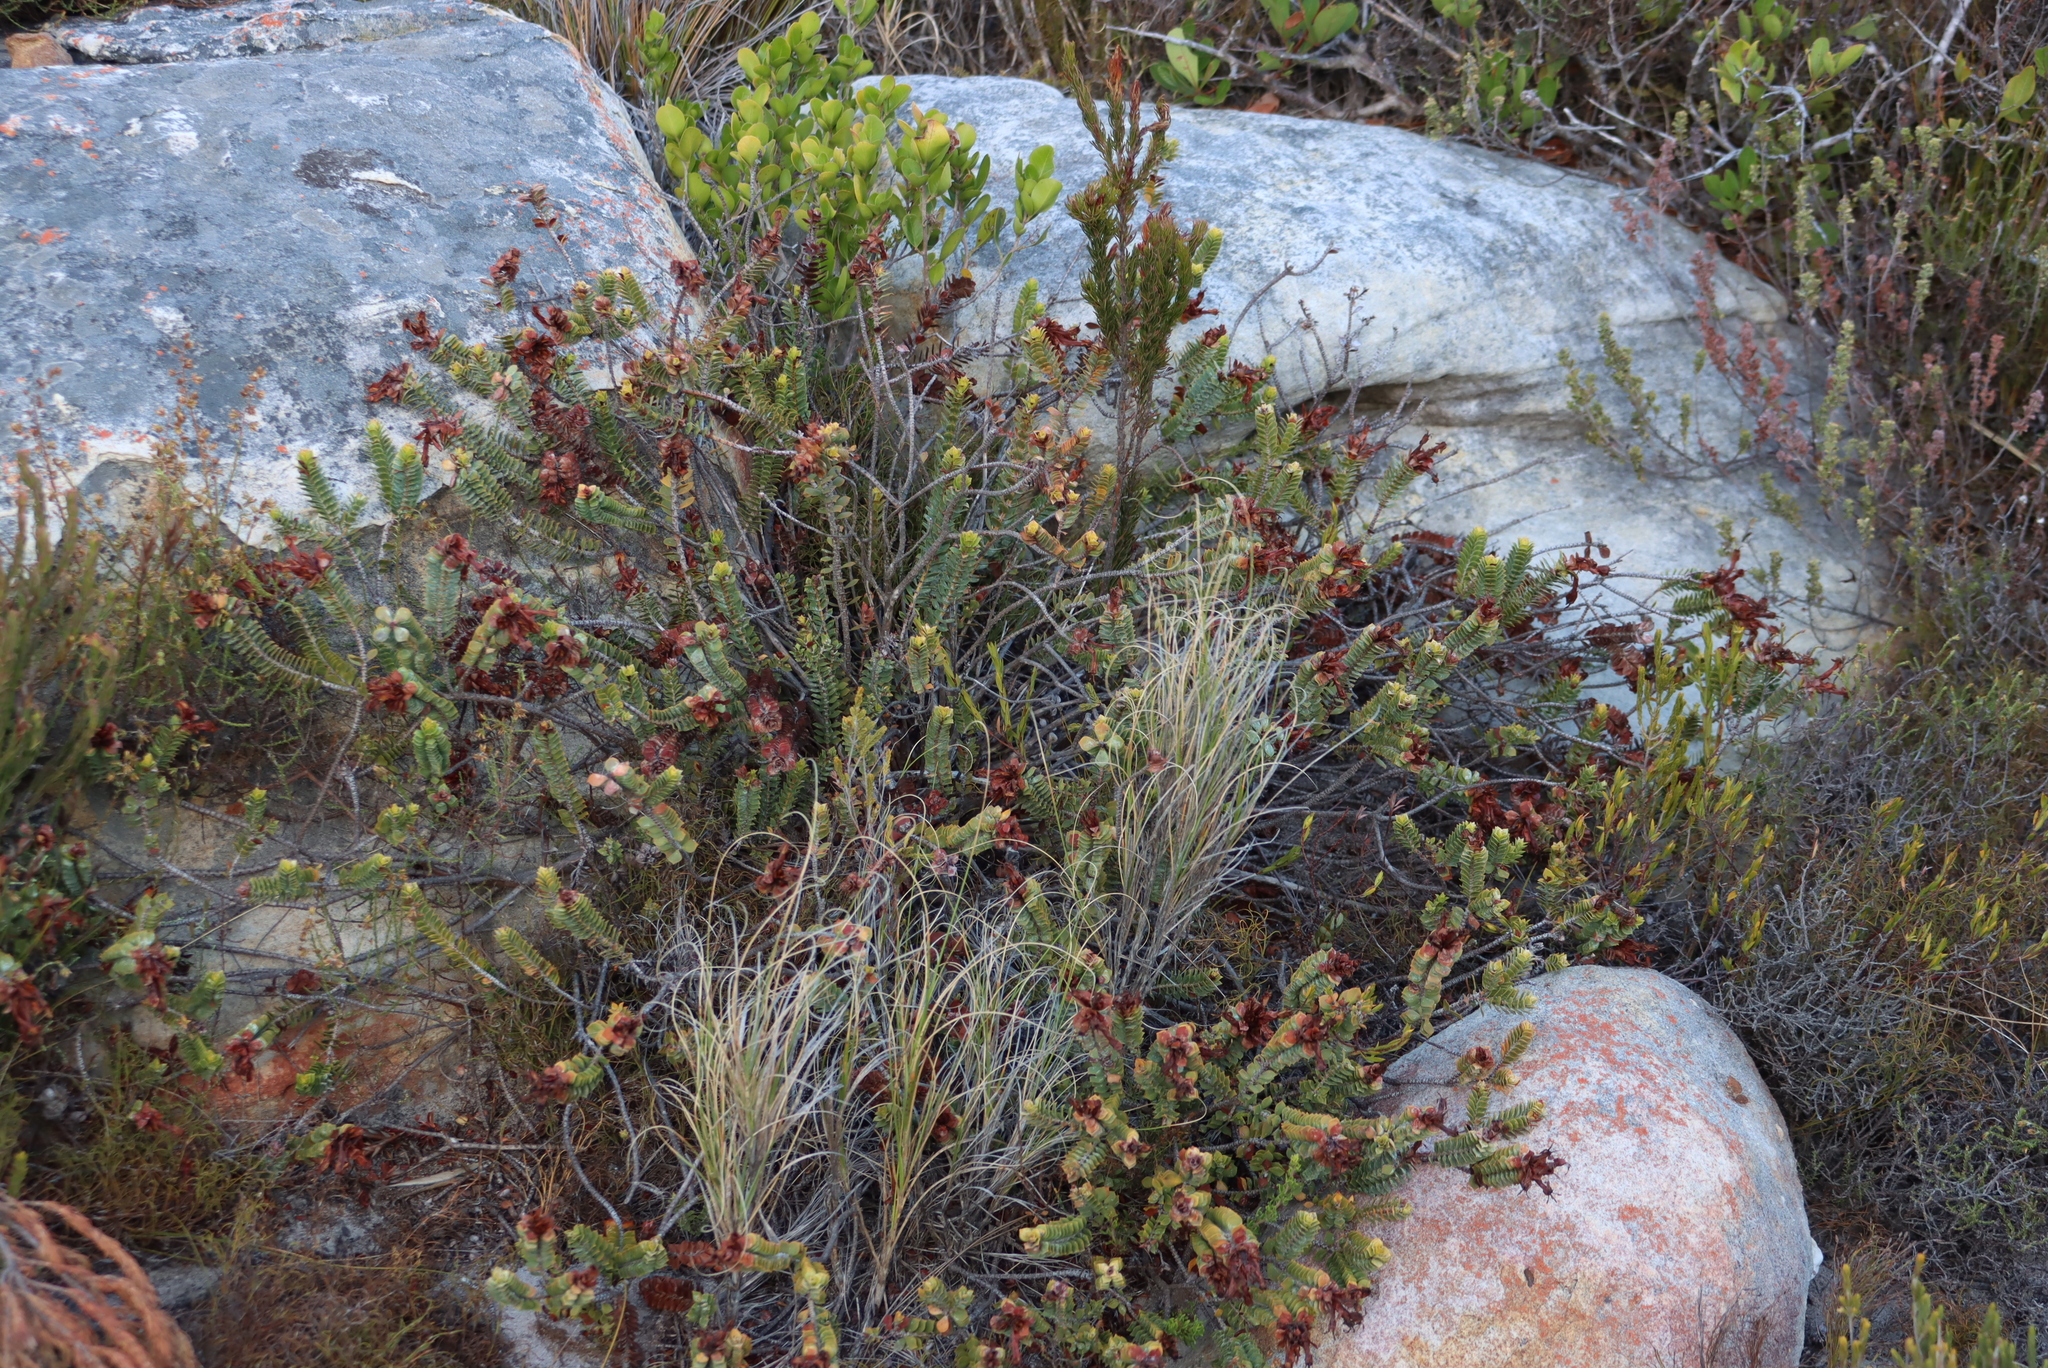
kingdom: Plantae
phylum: Tracheophyta
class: Magnoliopsida
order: Myrtales
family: Penaeaceae
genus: Saltera
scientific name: Saltera sarcocolla
